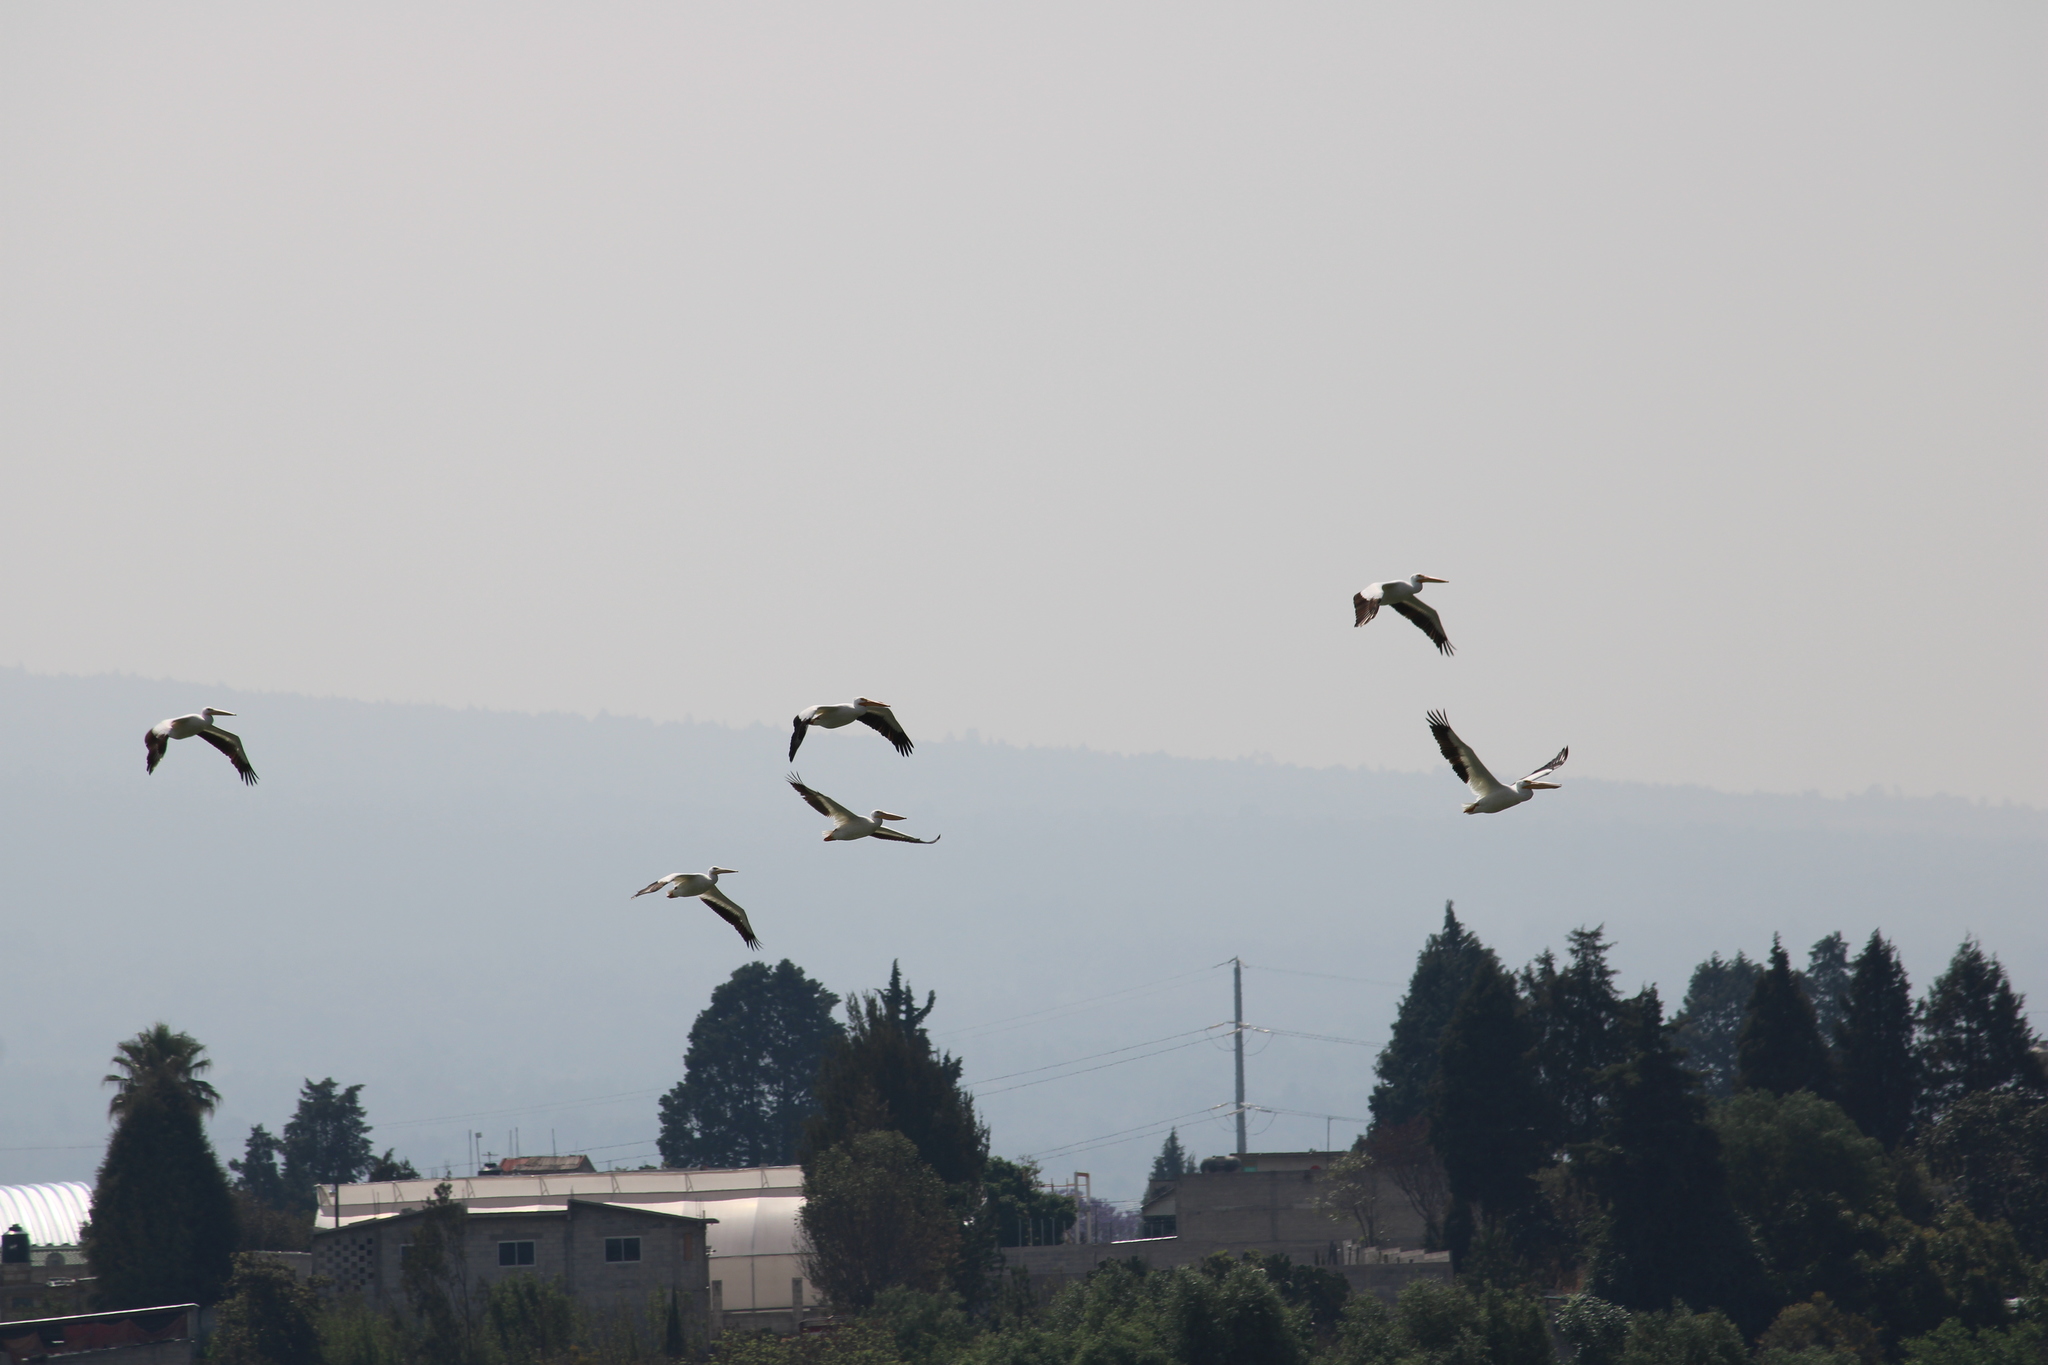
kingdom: Animalia
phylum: Chordata
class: Aves
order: Pelecaniformes
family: Pelecanidae
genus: Pelecanus
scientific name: Pelecanus erythrorhynchos
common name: American white pelican
